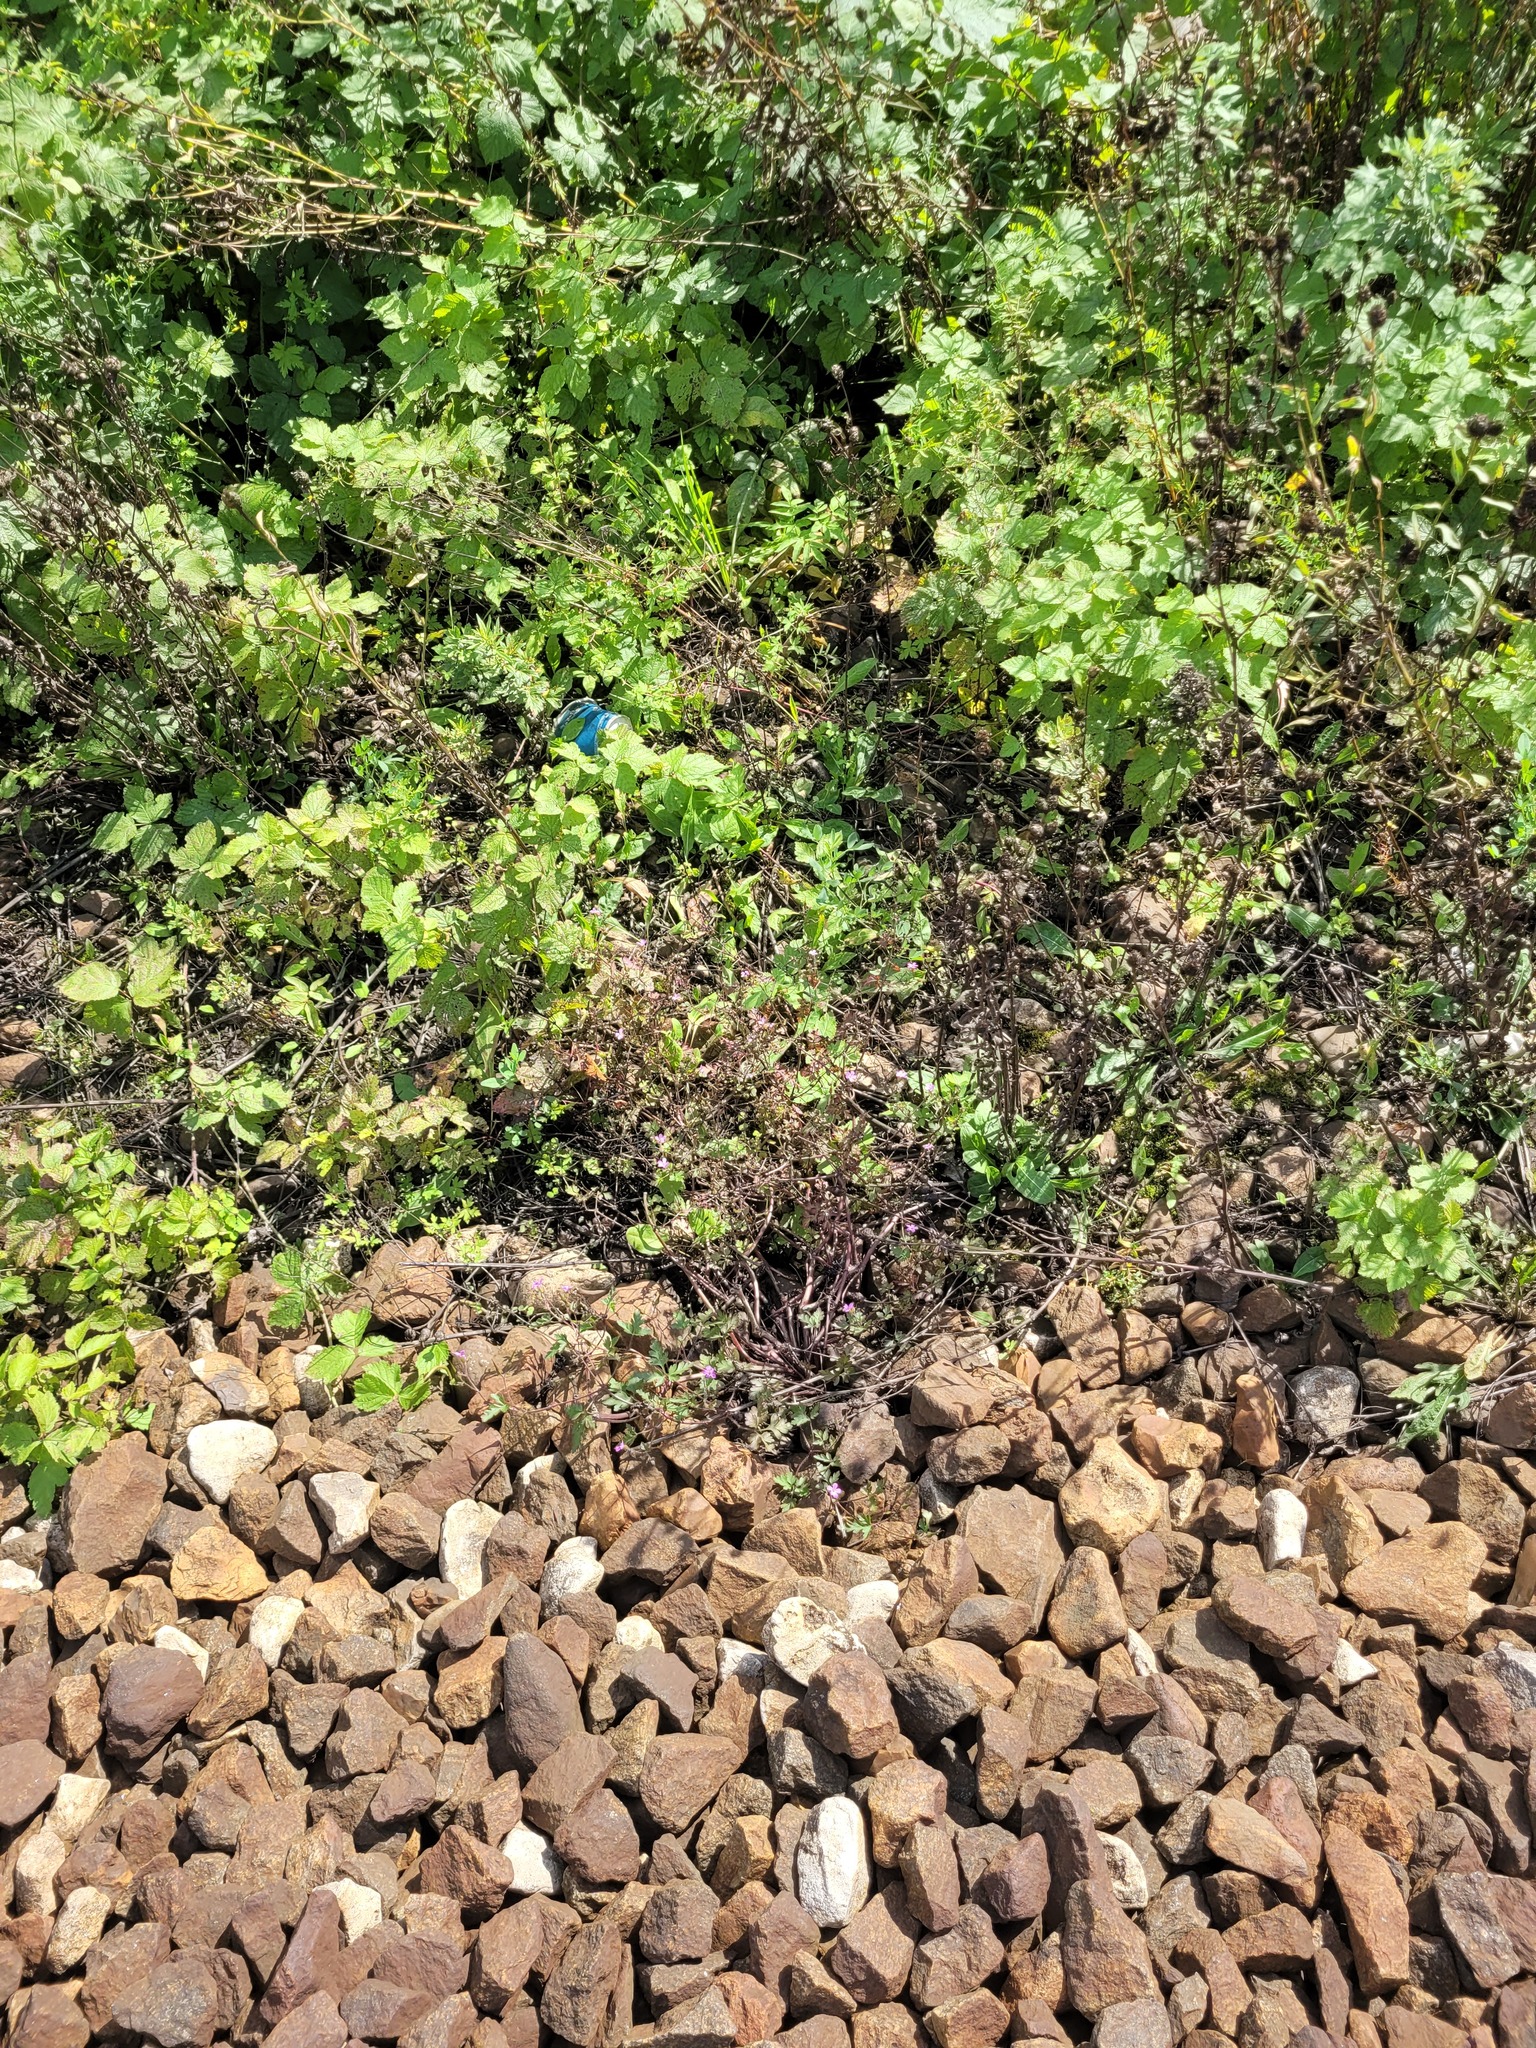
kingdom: Plantae
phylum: Tracheophyta
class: Magnoliopsida
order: Geraniales
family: Geraniaceae
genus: Geranium
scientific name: Geranium robertianum
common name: Herb-robert
